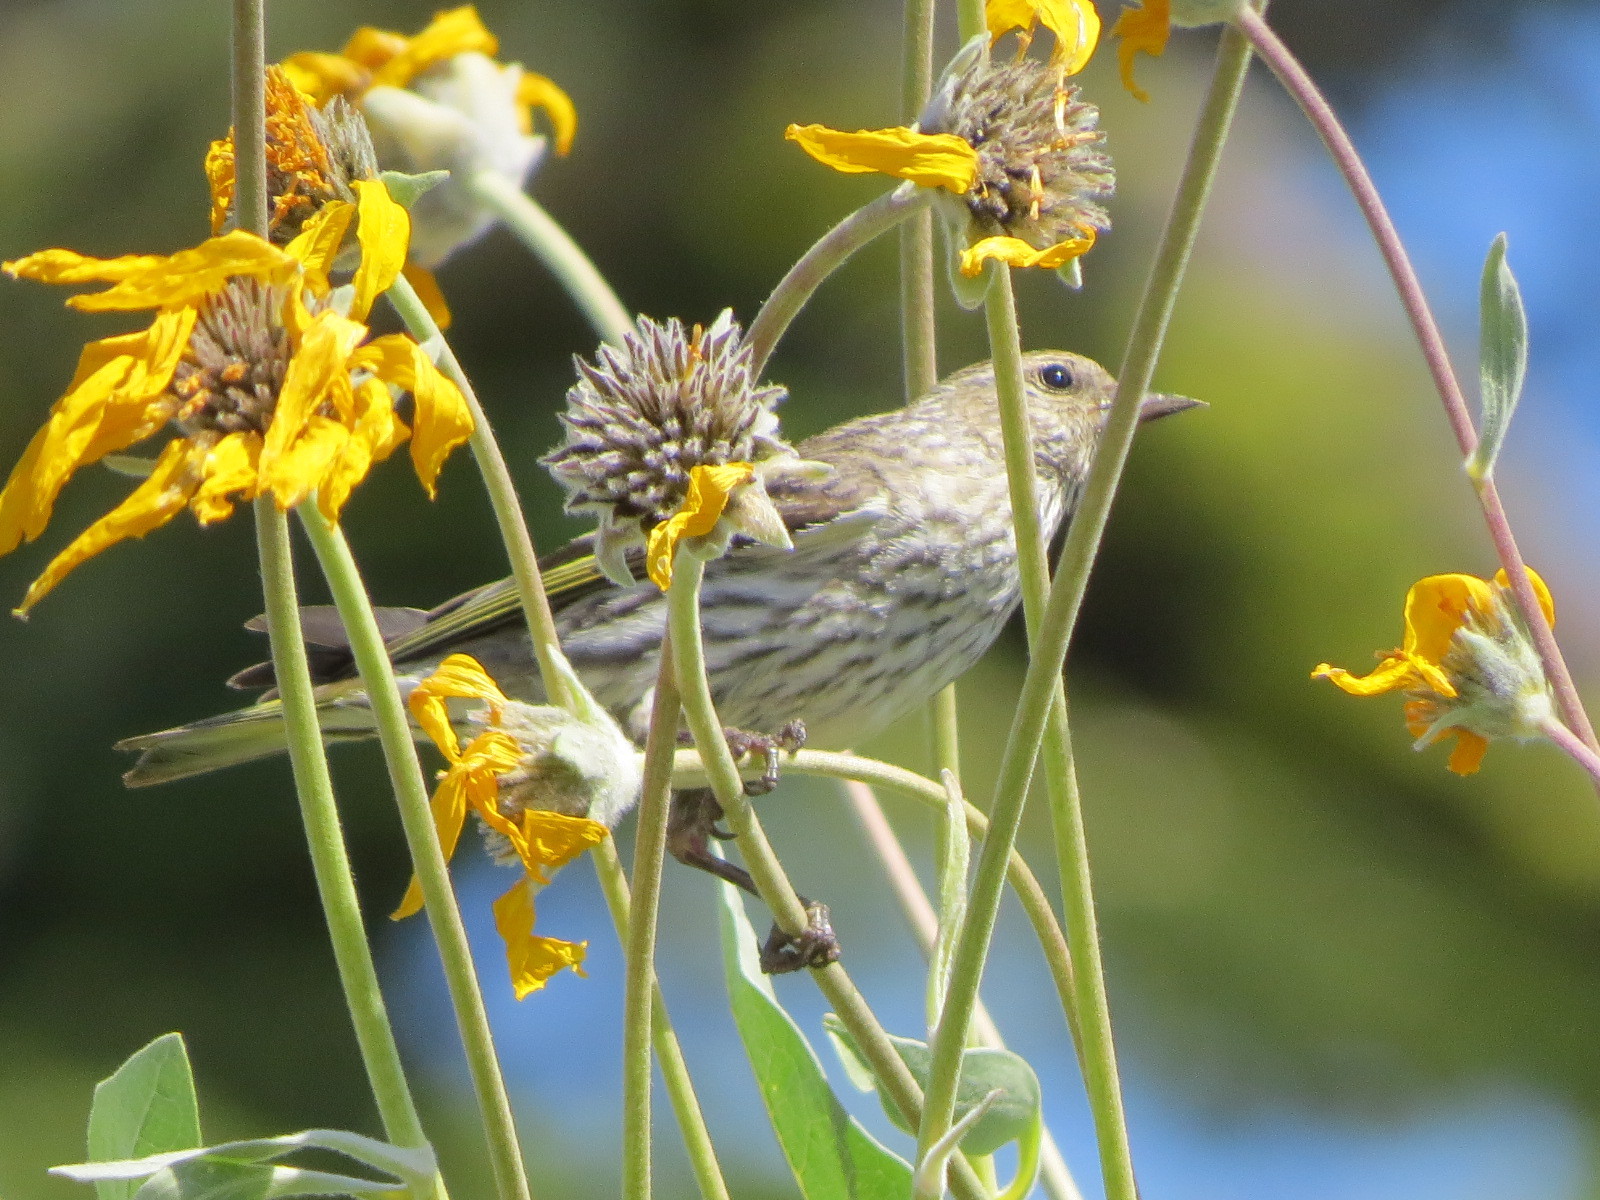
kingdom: Animalia
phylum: Chordata
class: Aves
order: Passeriformes
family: Fringillidae
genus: Spinus
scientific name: Spinus pinus
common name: Pine siskin
